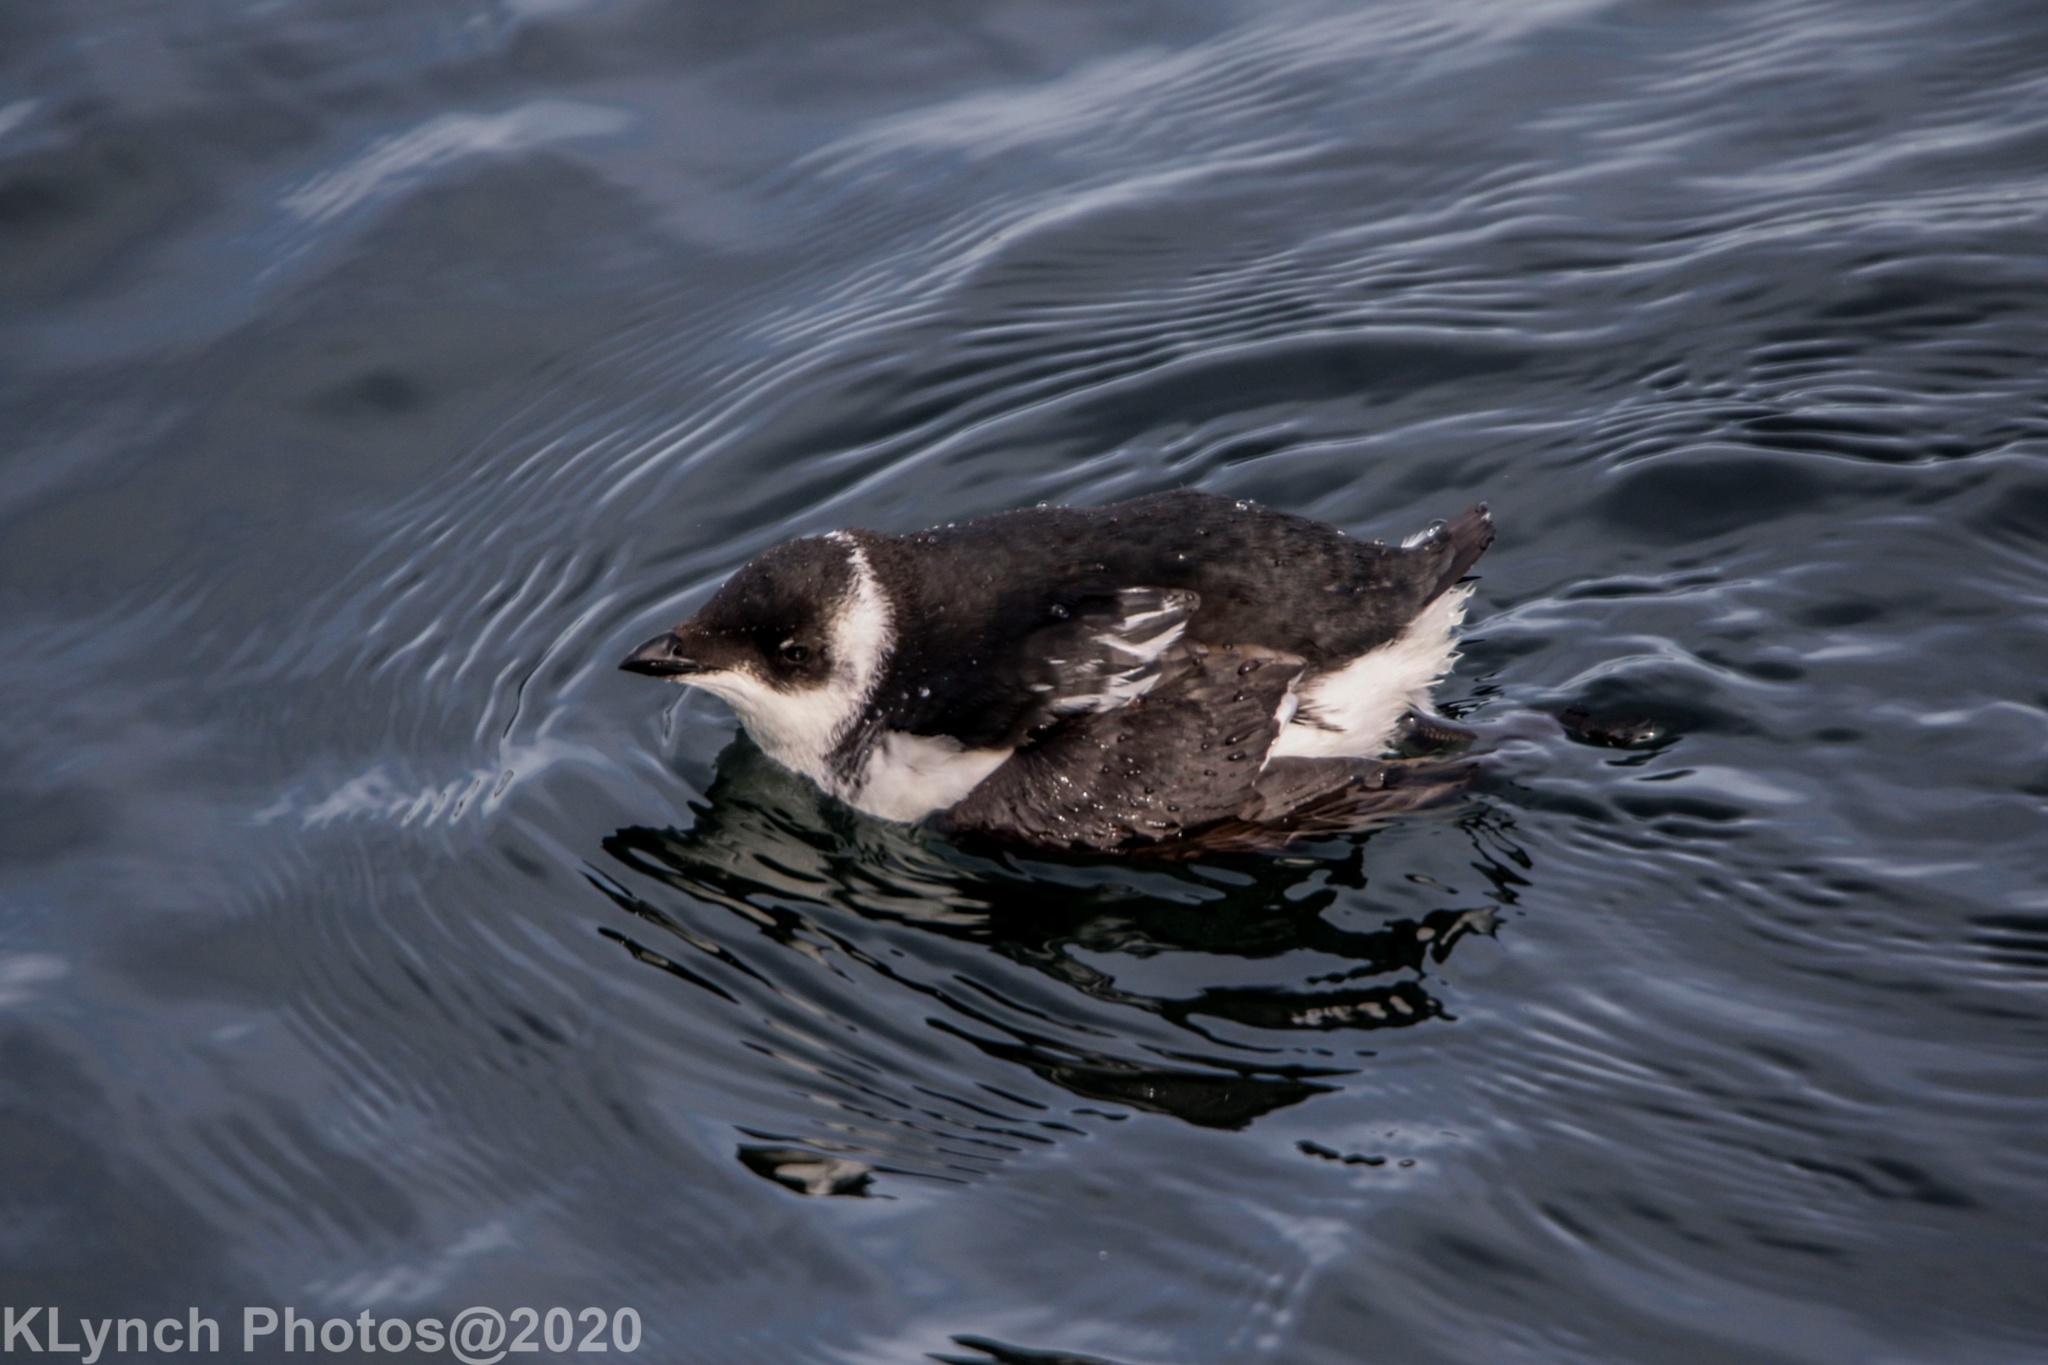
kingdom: Animalia
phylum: Chordata
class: Aves
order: Charadriiformes
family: Alcidae
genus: Alle
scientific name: Alle alle
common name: Little auk
